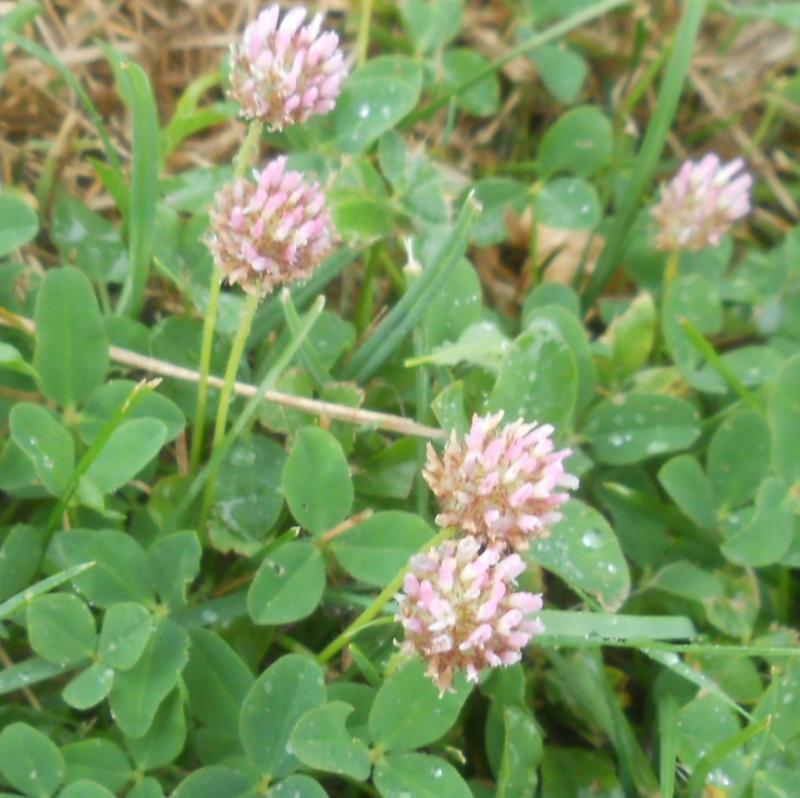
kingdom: Plantae
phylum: Tracheophyta
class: Magnoliopsida
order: Fabales
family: Fabaceae
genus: Trifolium
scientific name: Trifolium fragiferum
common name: Strawberry clover
